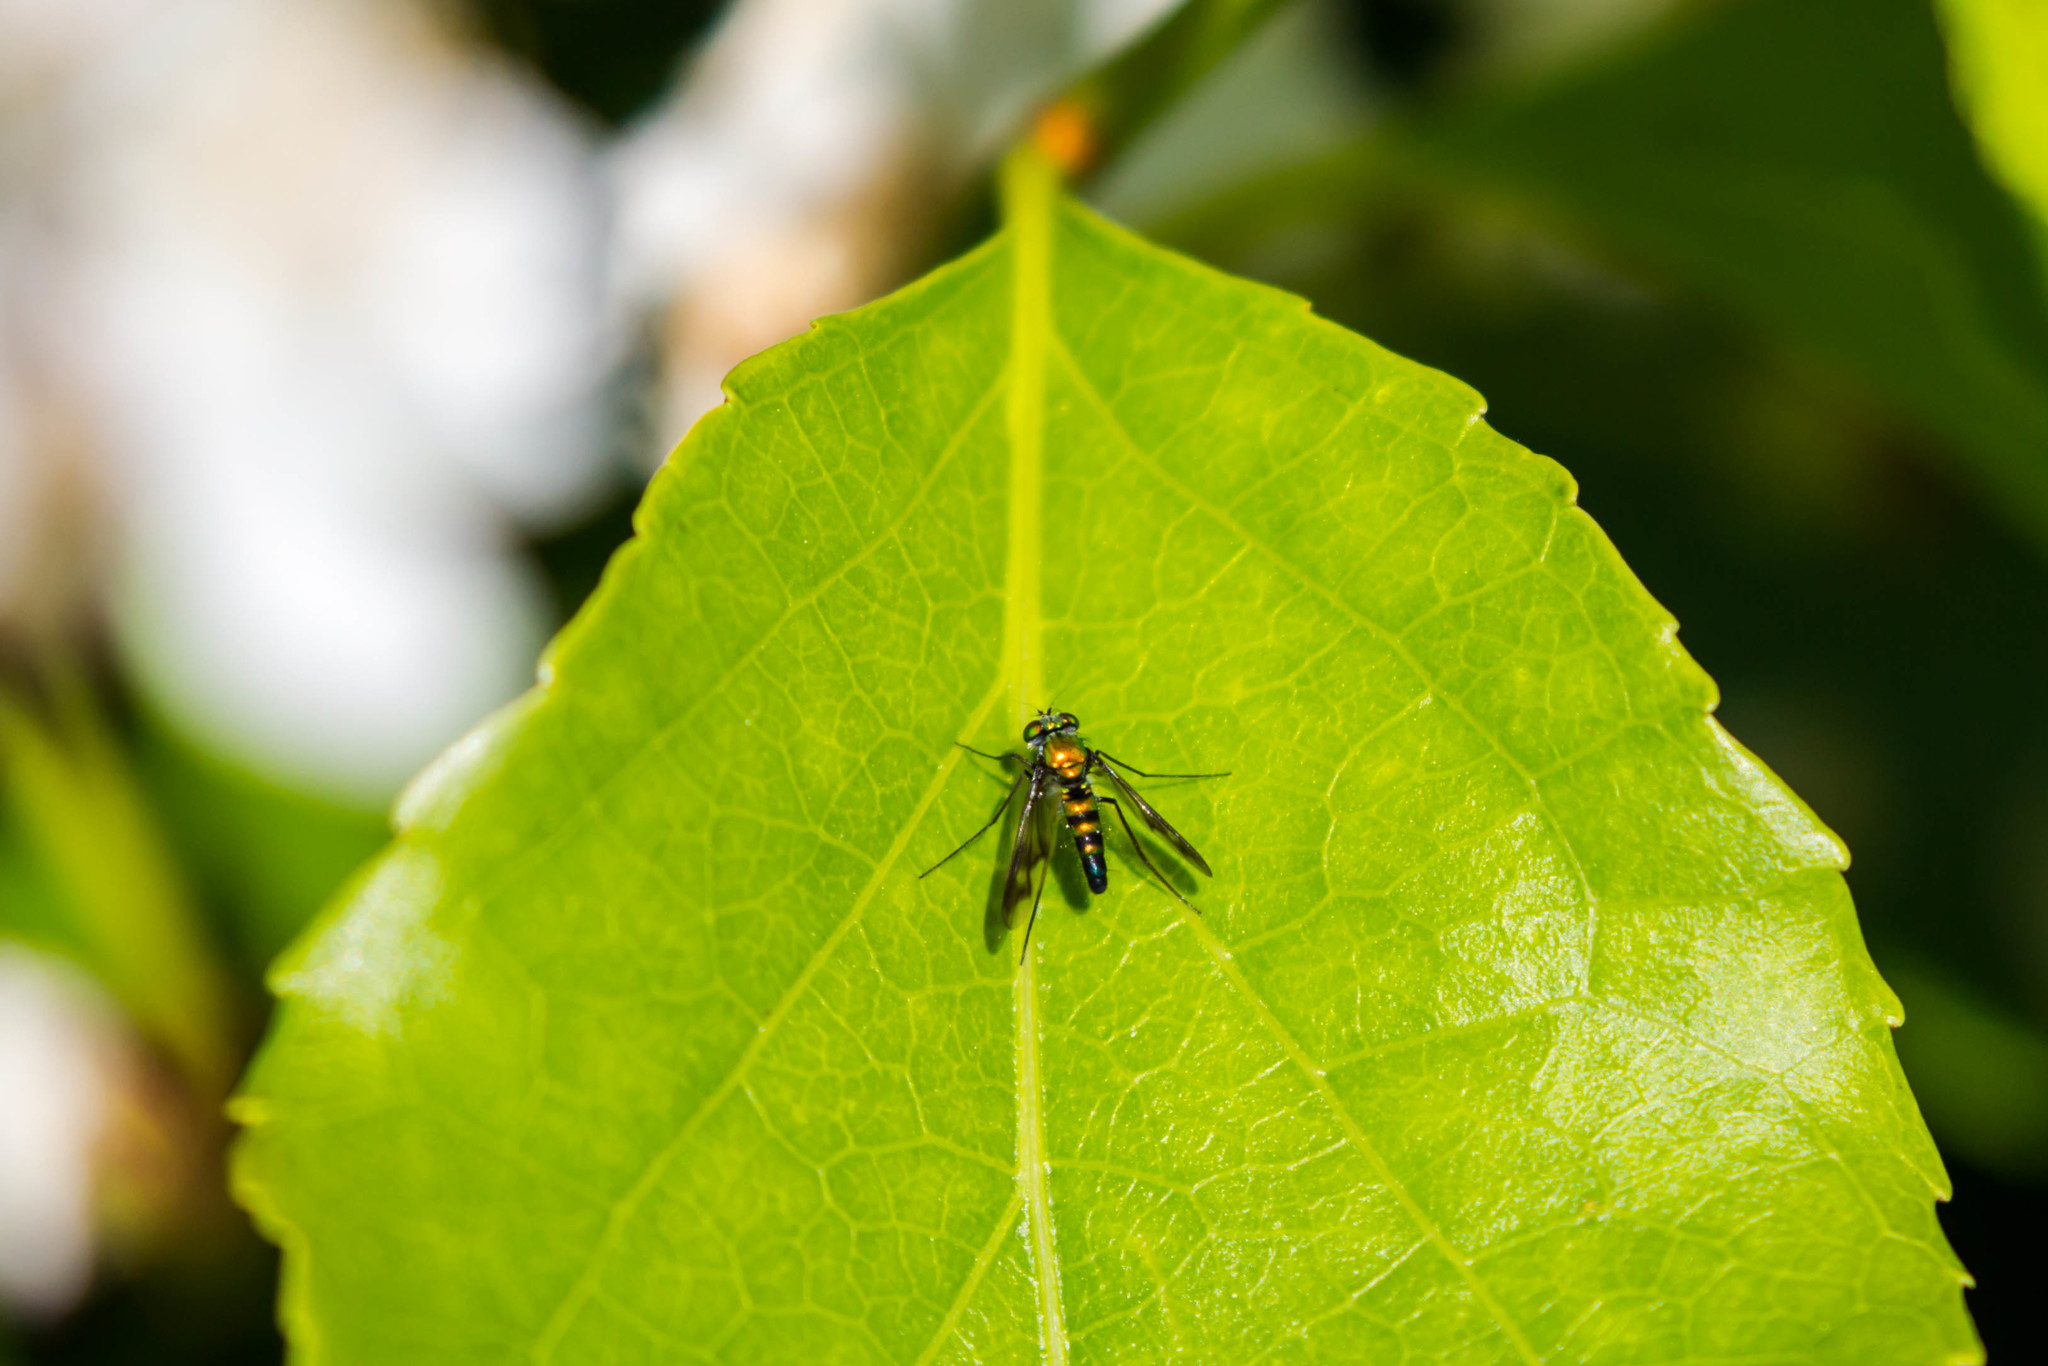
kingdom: Animalia
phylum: Arthropoda
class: Insecta
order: Diptera
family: Dolichopodidae
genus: Condylostylus
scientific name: Condylostylus patibulatus
